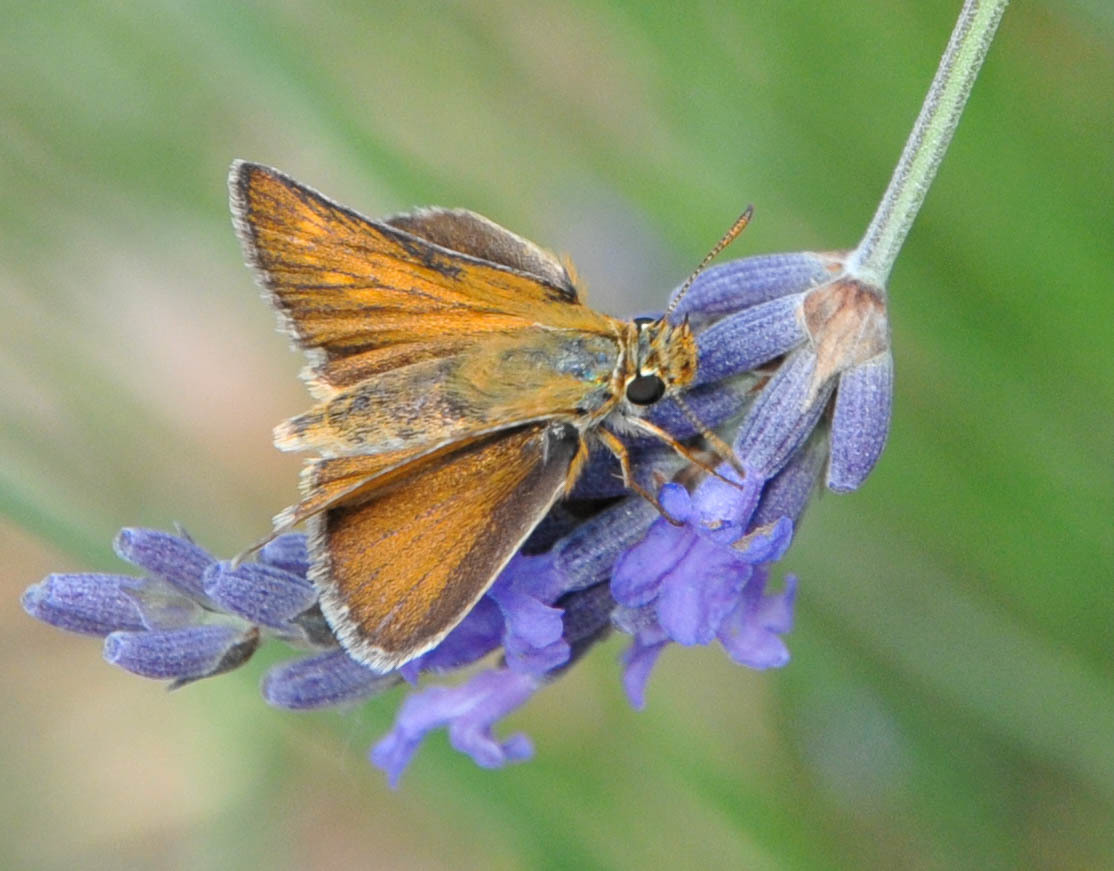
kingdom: Animalia
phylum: Arthropoda
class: Insecta
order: Lepidoptera
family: Hesperiidae
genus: Thymelicus
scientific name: Thymelicus acteon
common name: Lulworth skipper
